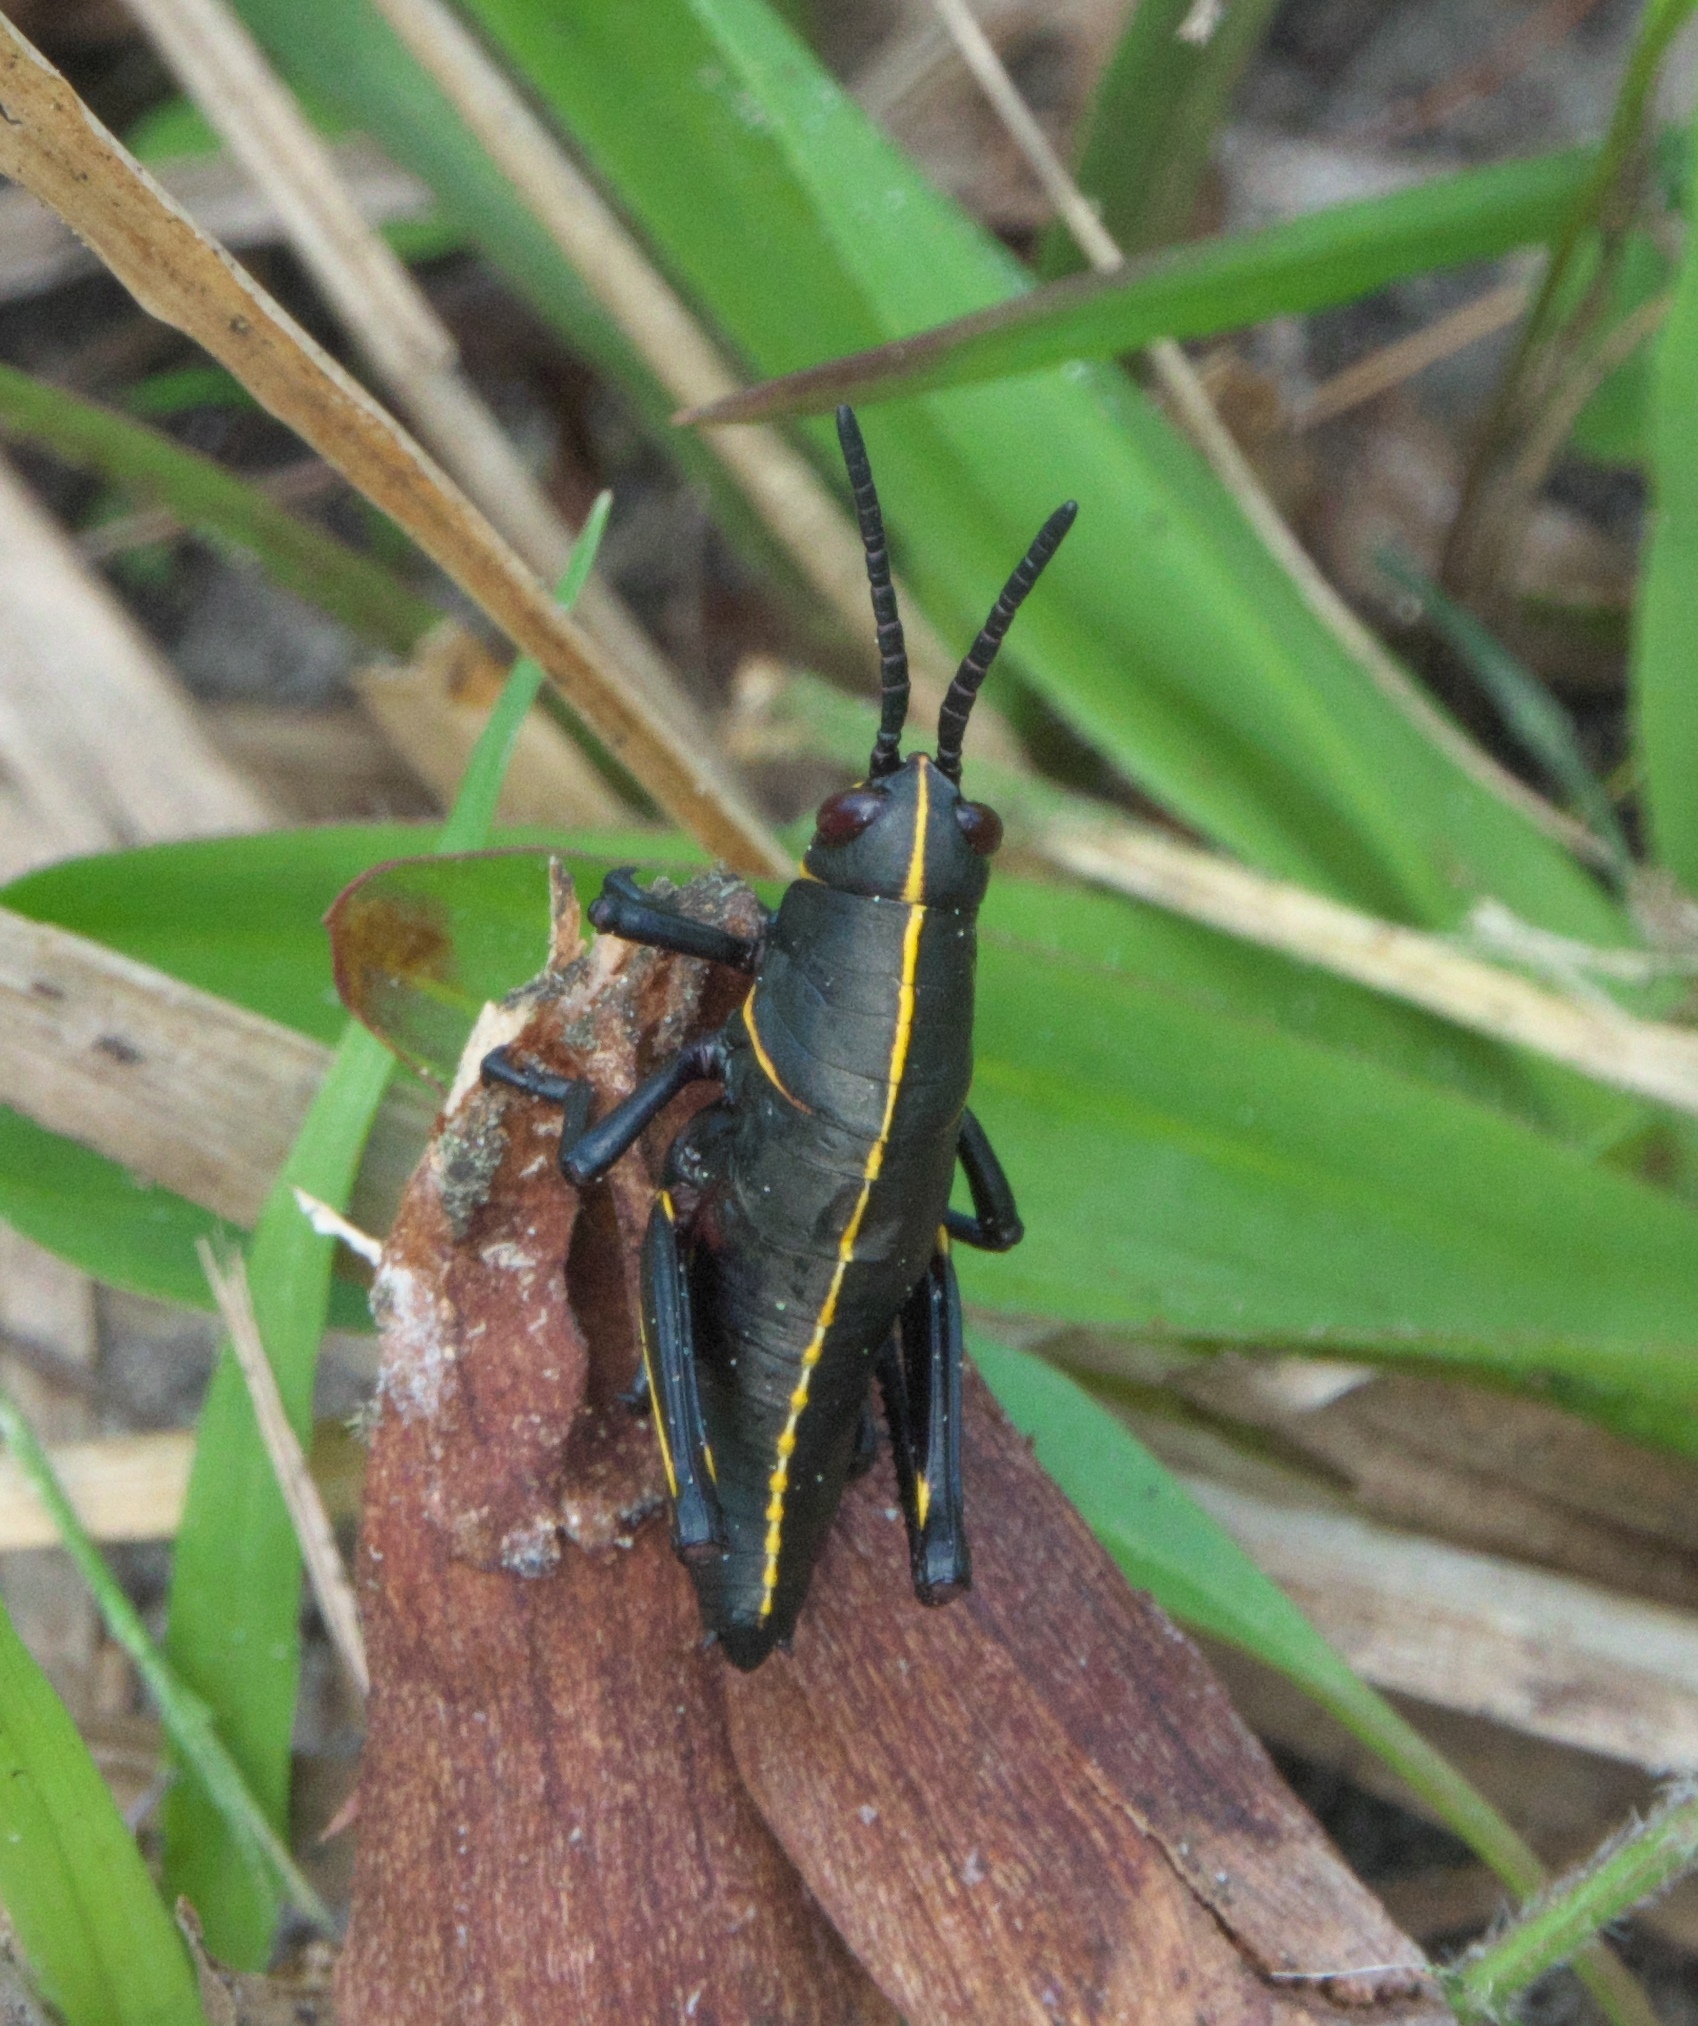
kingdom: Animalia
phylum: Arthropoda
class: Insecta
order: Orthoptera
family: Romaleidae
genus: Romalea
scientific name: Romalea microptera
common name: Eastern lubber grasshopper
